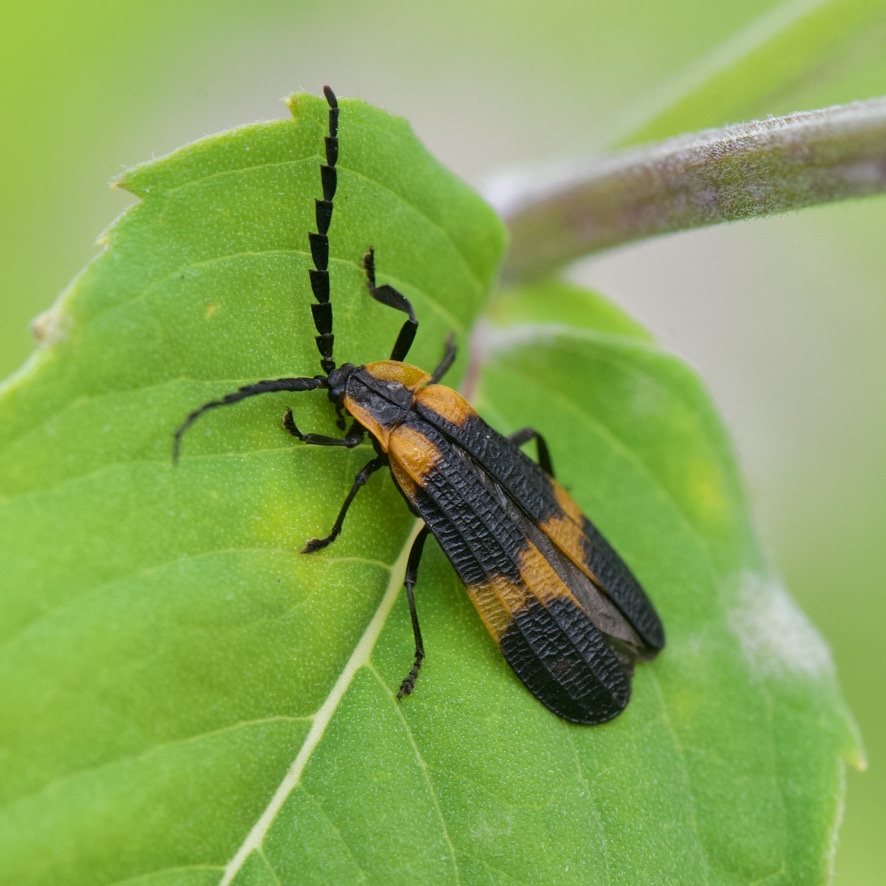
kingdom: Animalia
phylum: Arthropoda
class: Insecta
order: Coleoptera
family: Lycidae
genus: Calopteron
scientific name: Calopteron reticulatum
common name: Banded net-winged beetle
